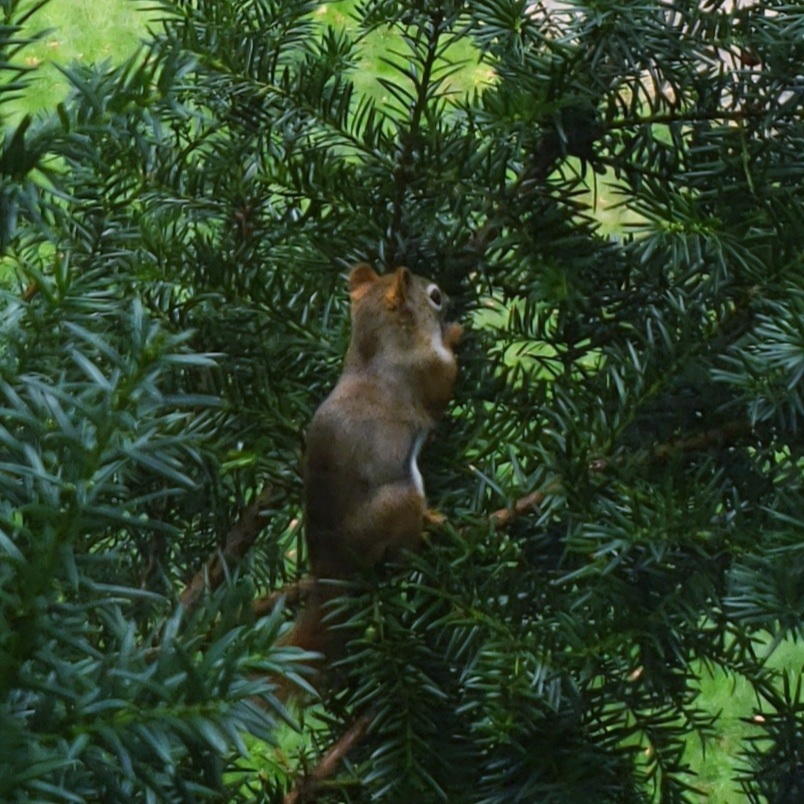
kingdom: Animalia
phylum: Chordata
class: Mammalia
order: Rodentia
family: Sciuridae
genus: Tamiasciurus
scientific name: Tamiasciurus hudsonicus
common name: Red squirrel
